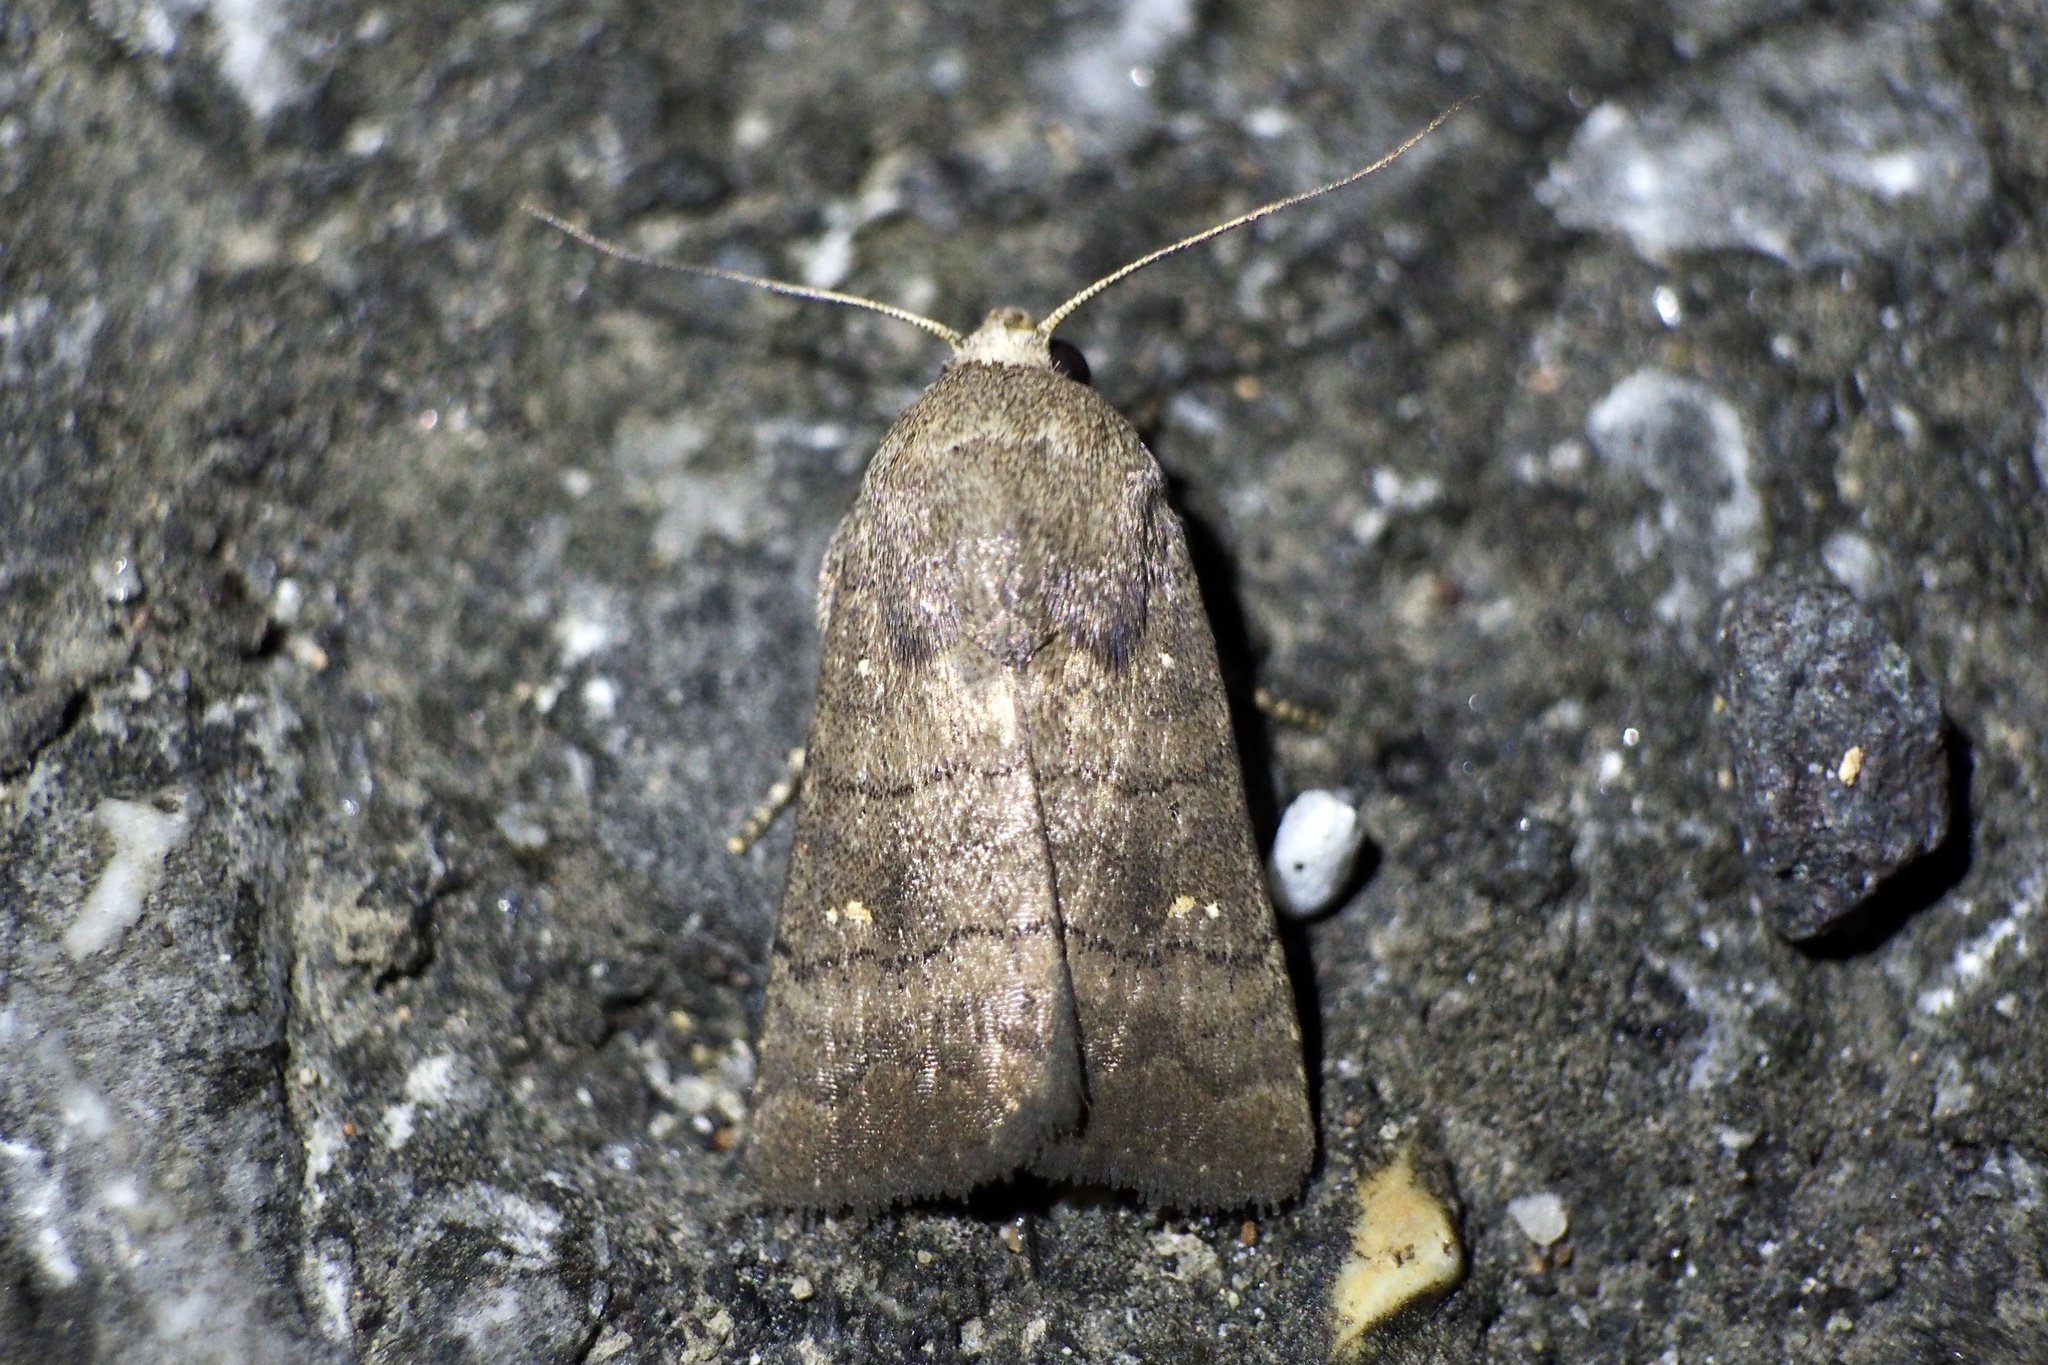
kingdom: Animalia
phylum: Arthropoda
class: Insecta
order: Lepidoptera
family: Noctuidae
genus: Athetis
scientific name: Athetis stellata
